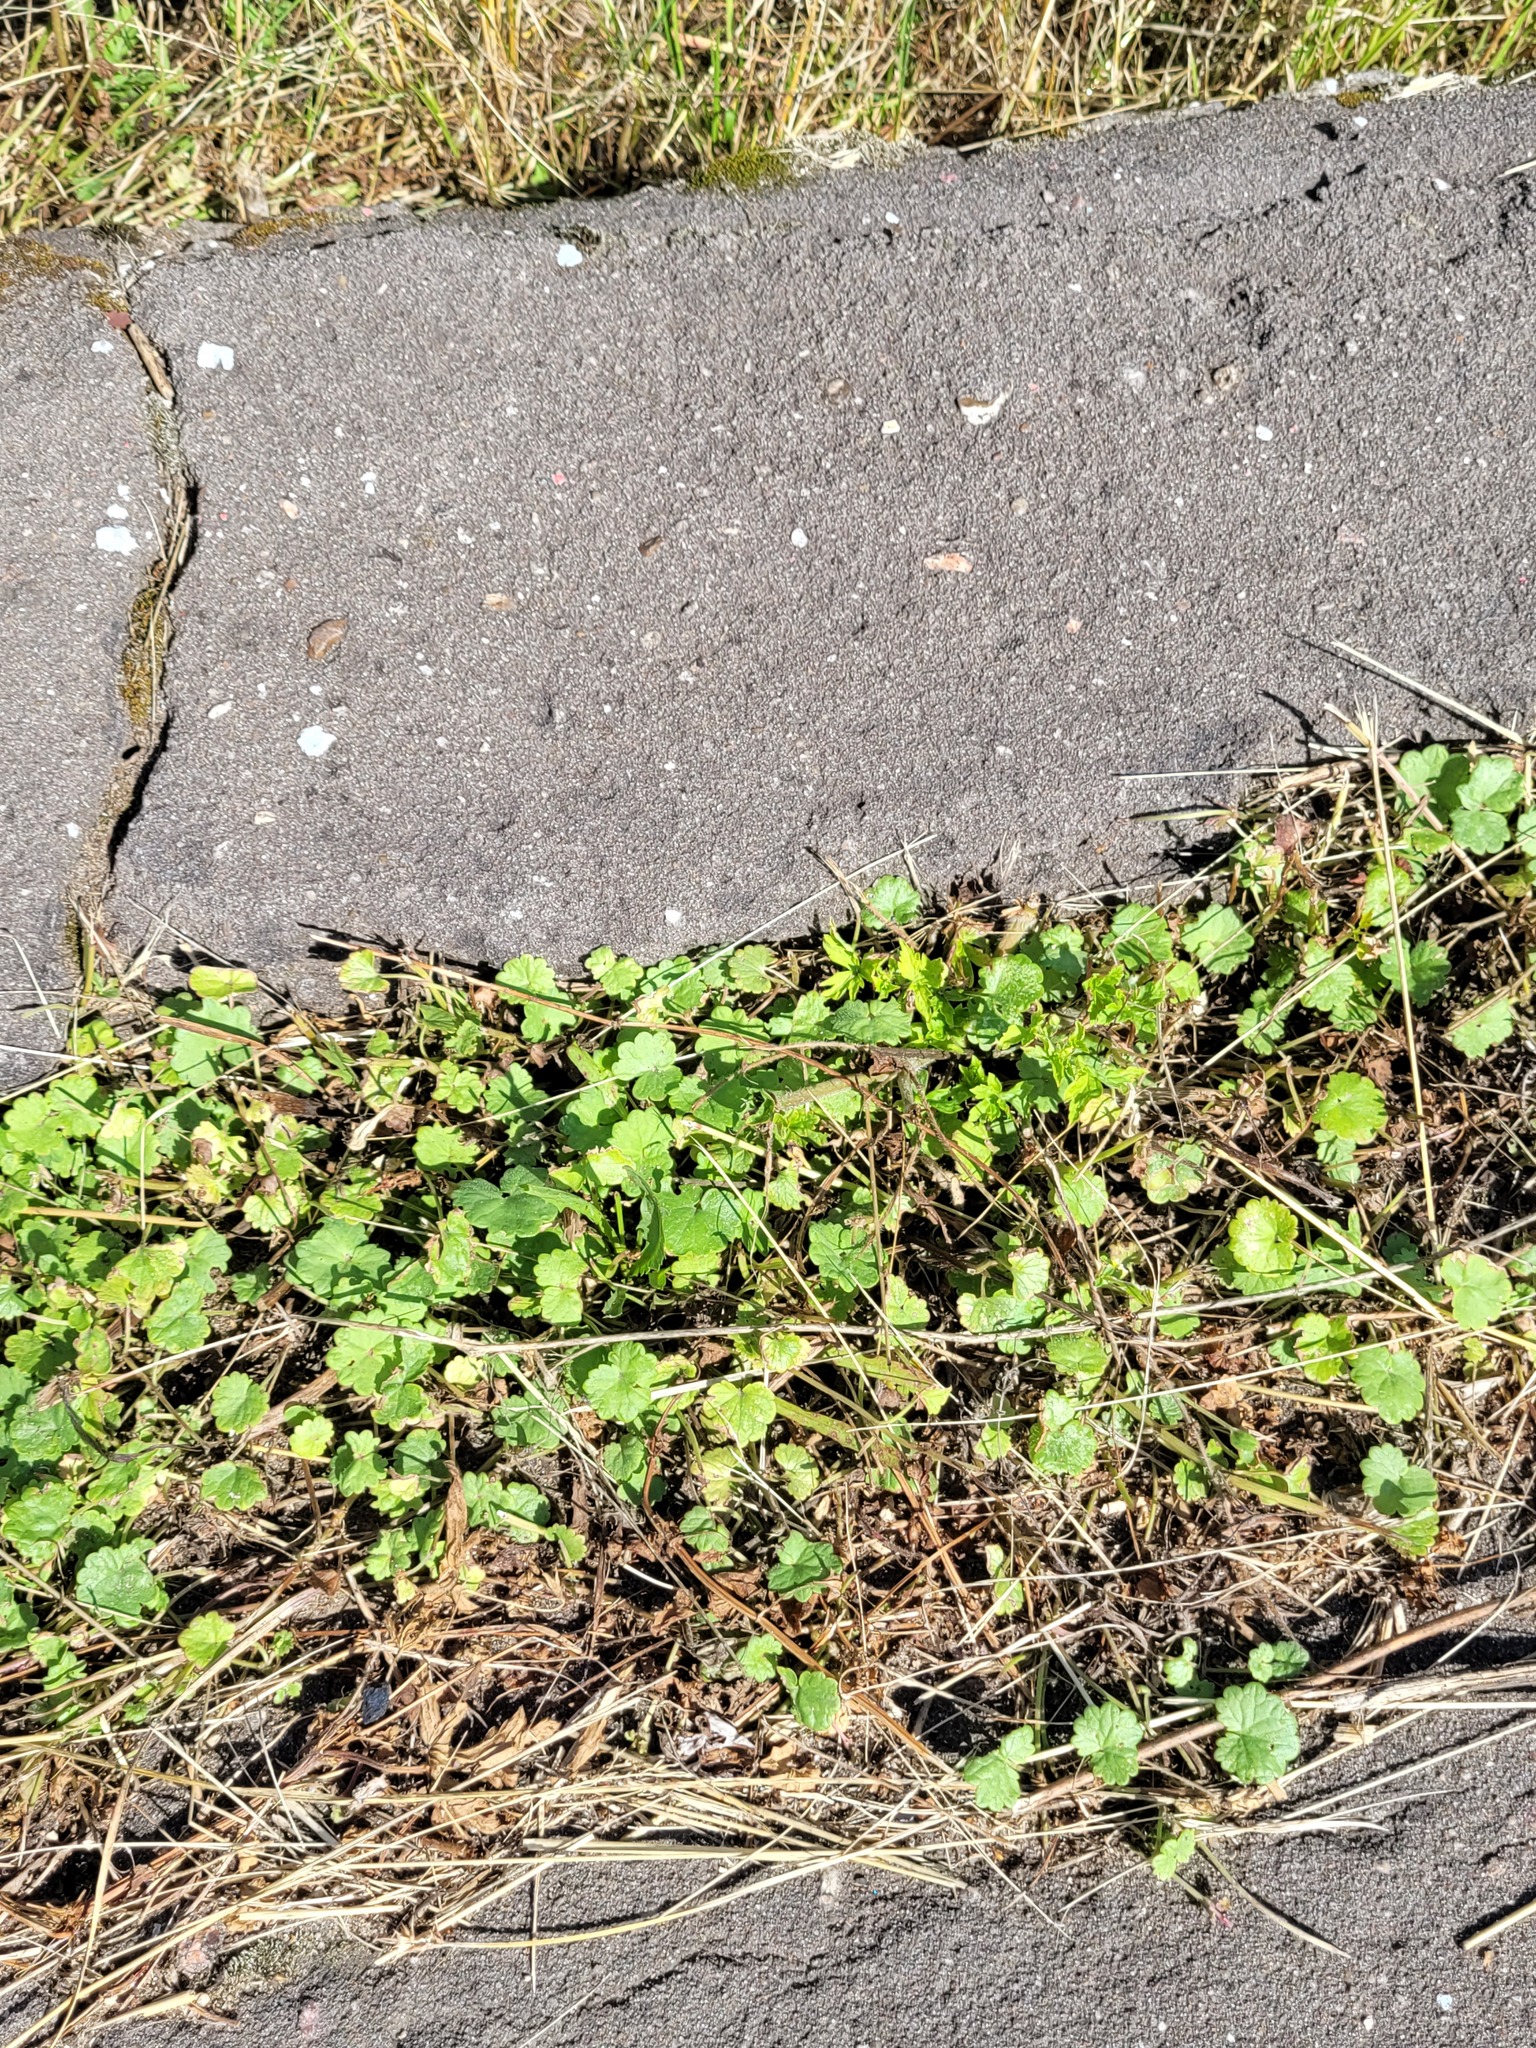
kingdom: Plantae
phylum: Tracheophyta
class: Magnoliopsida
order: Lamiales
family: Lamiaceae
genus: Glechoma
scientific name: Glechoma hederacea
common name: Ground ivy
